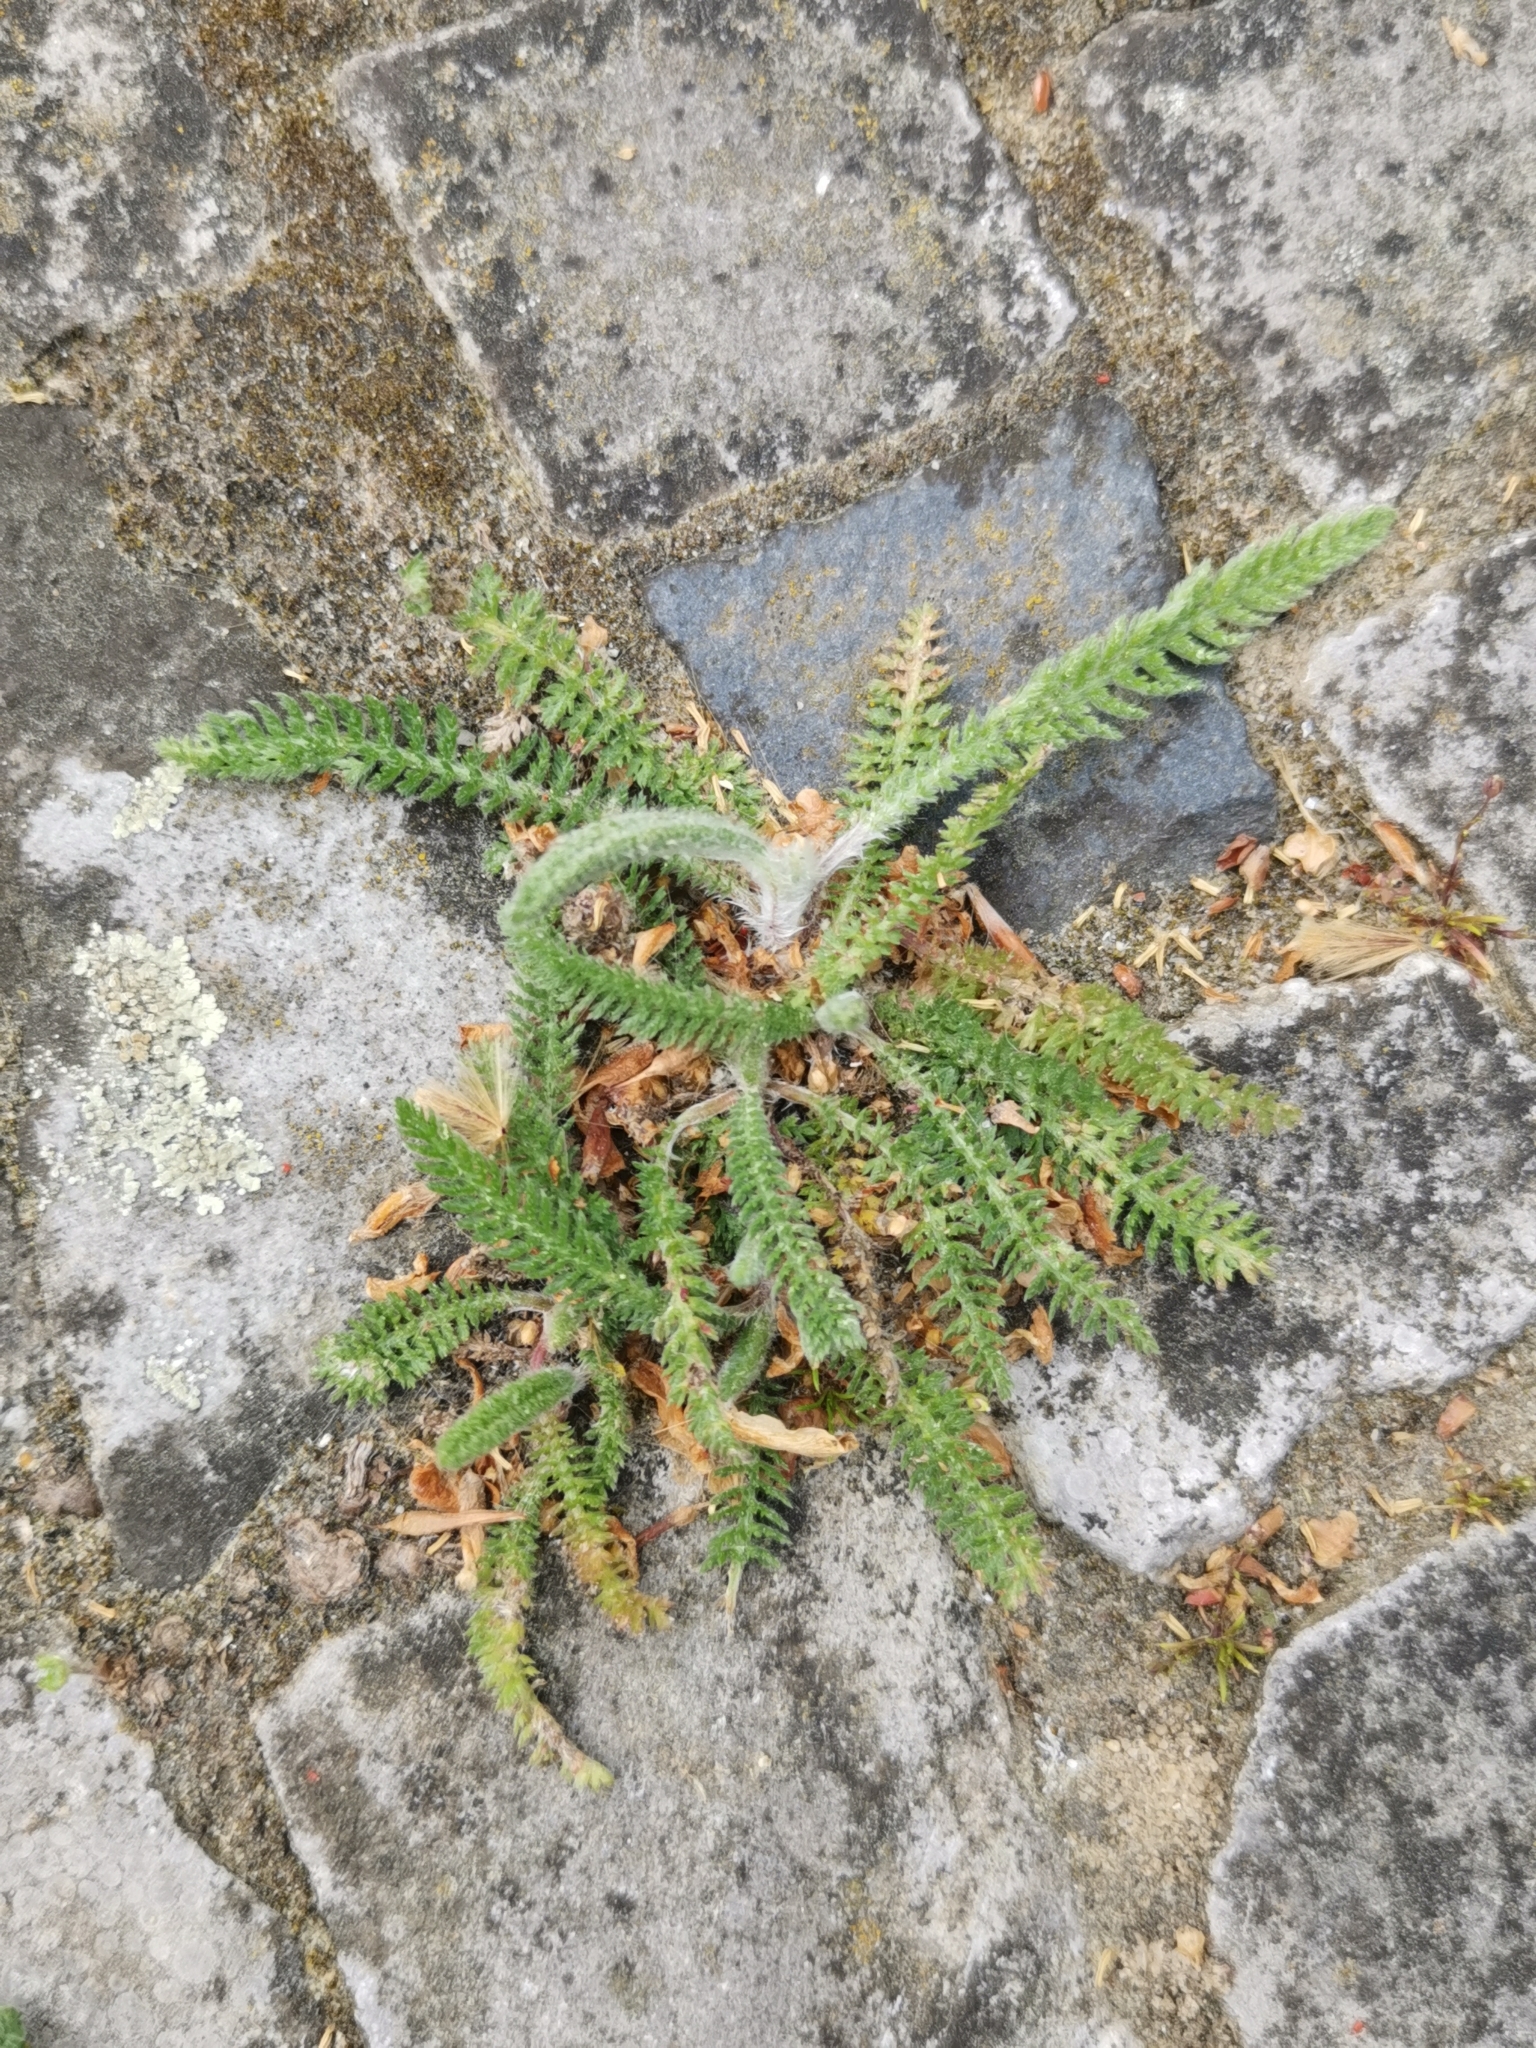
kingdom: Plantae
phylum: Tracheophyta
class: Magnoliopsida
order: Asterales
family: Asteraceae
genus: Achillea
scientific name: Achillea millefolium
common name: Yarrow
